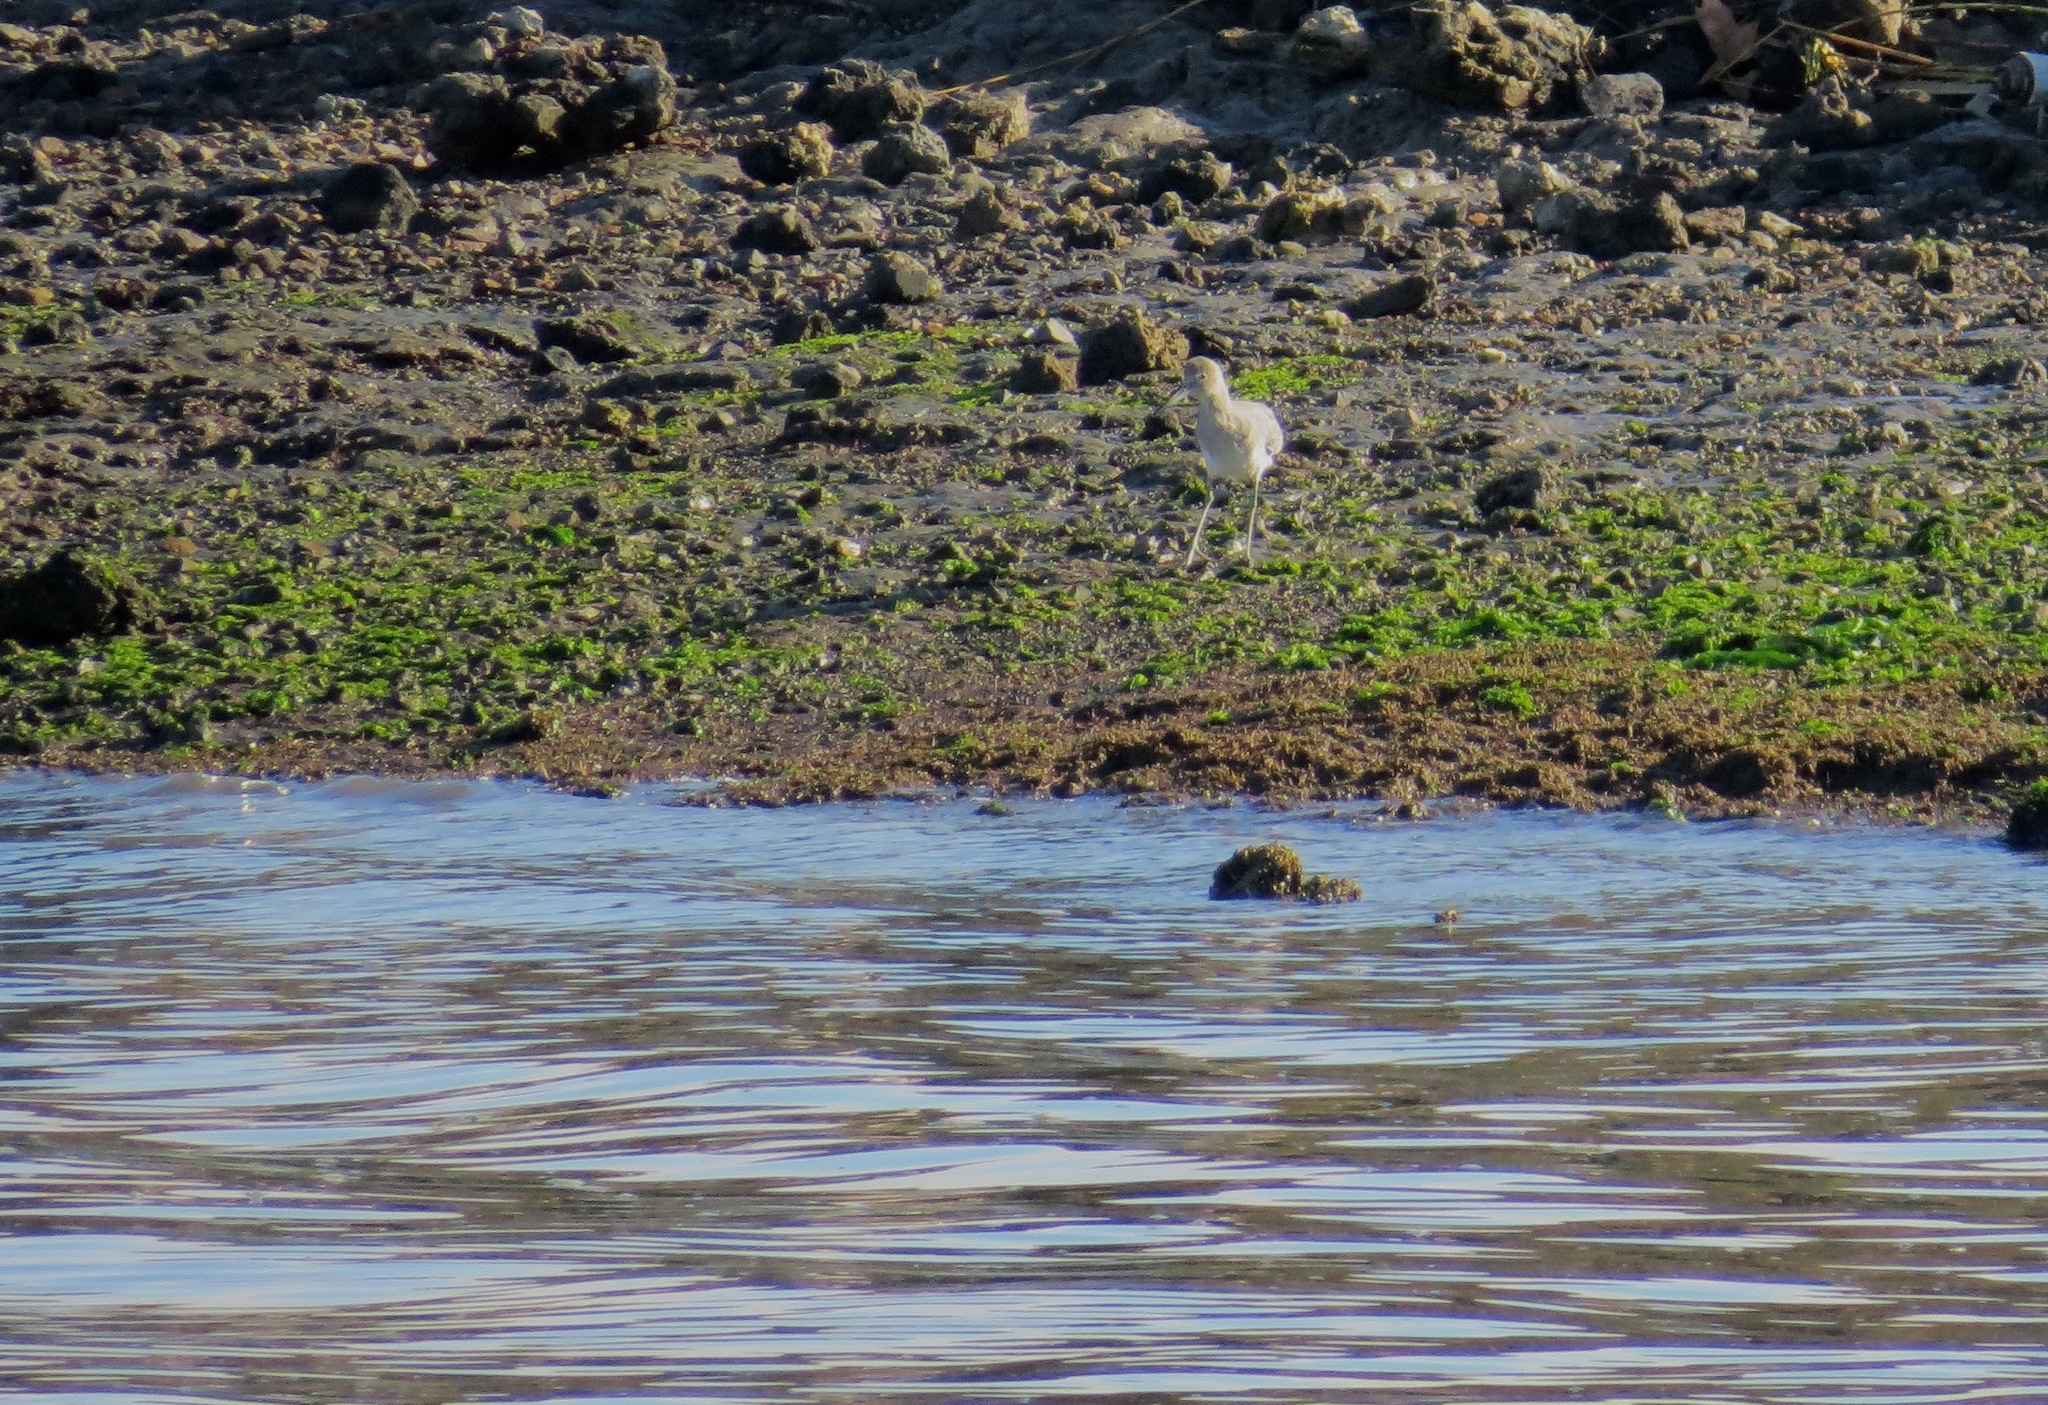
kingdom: Animalia
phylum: Chordata
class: Aves
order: Charadriiformes
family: Scolopacidae
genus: Tringa
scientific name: Tringa semipalmata
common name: Willet
